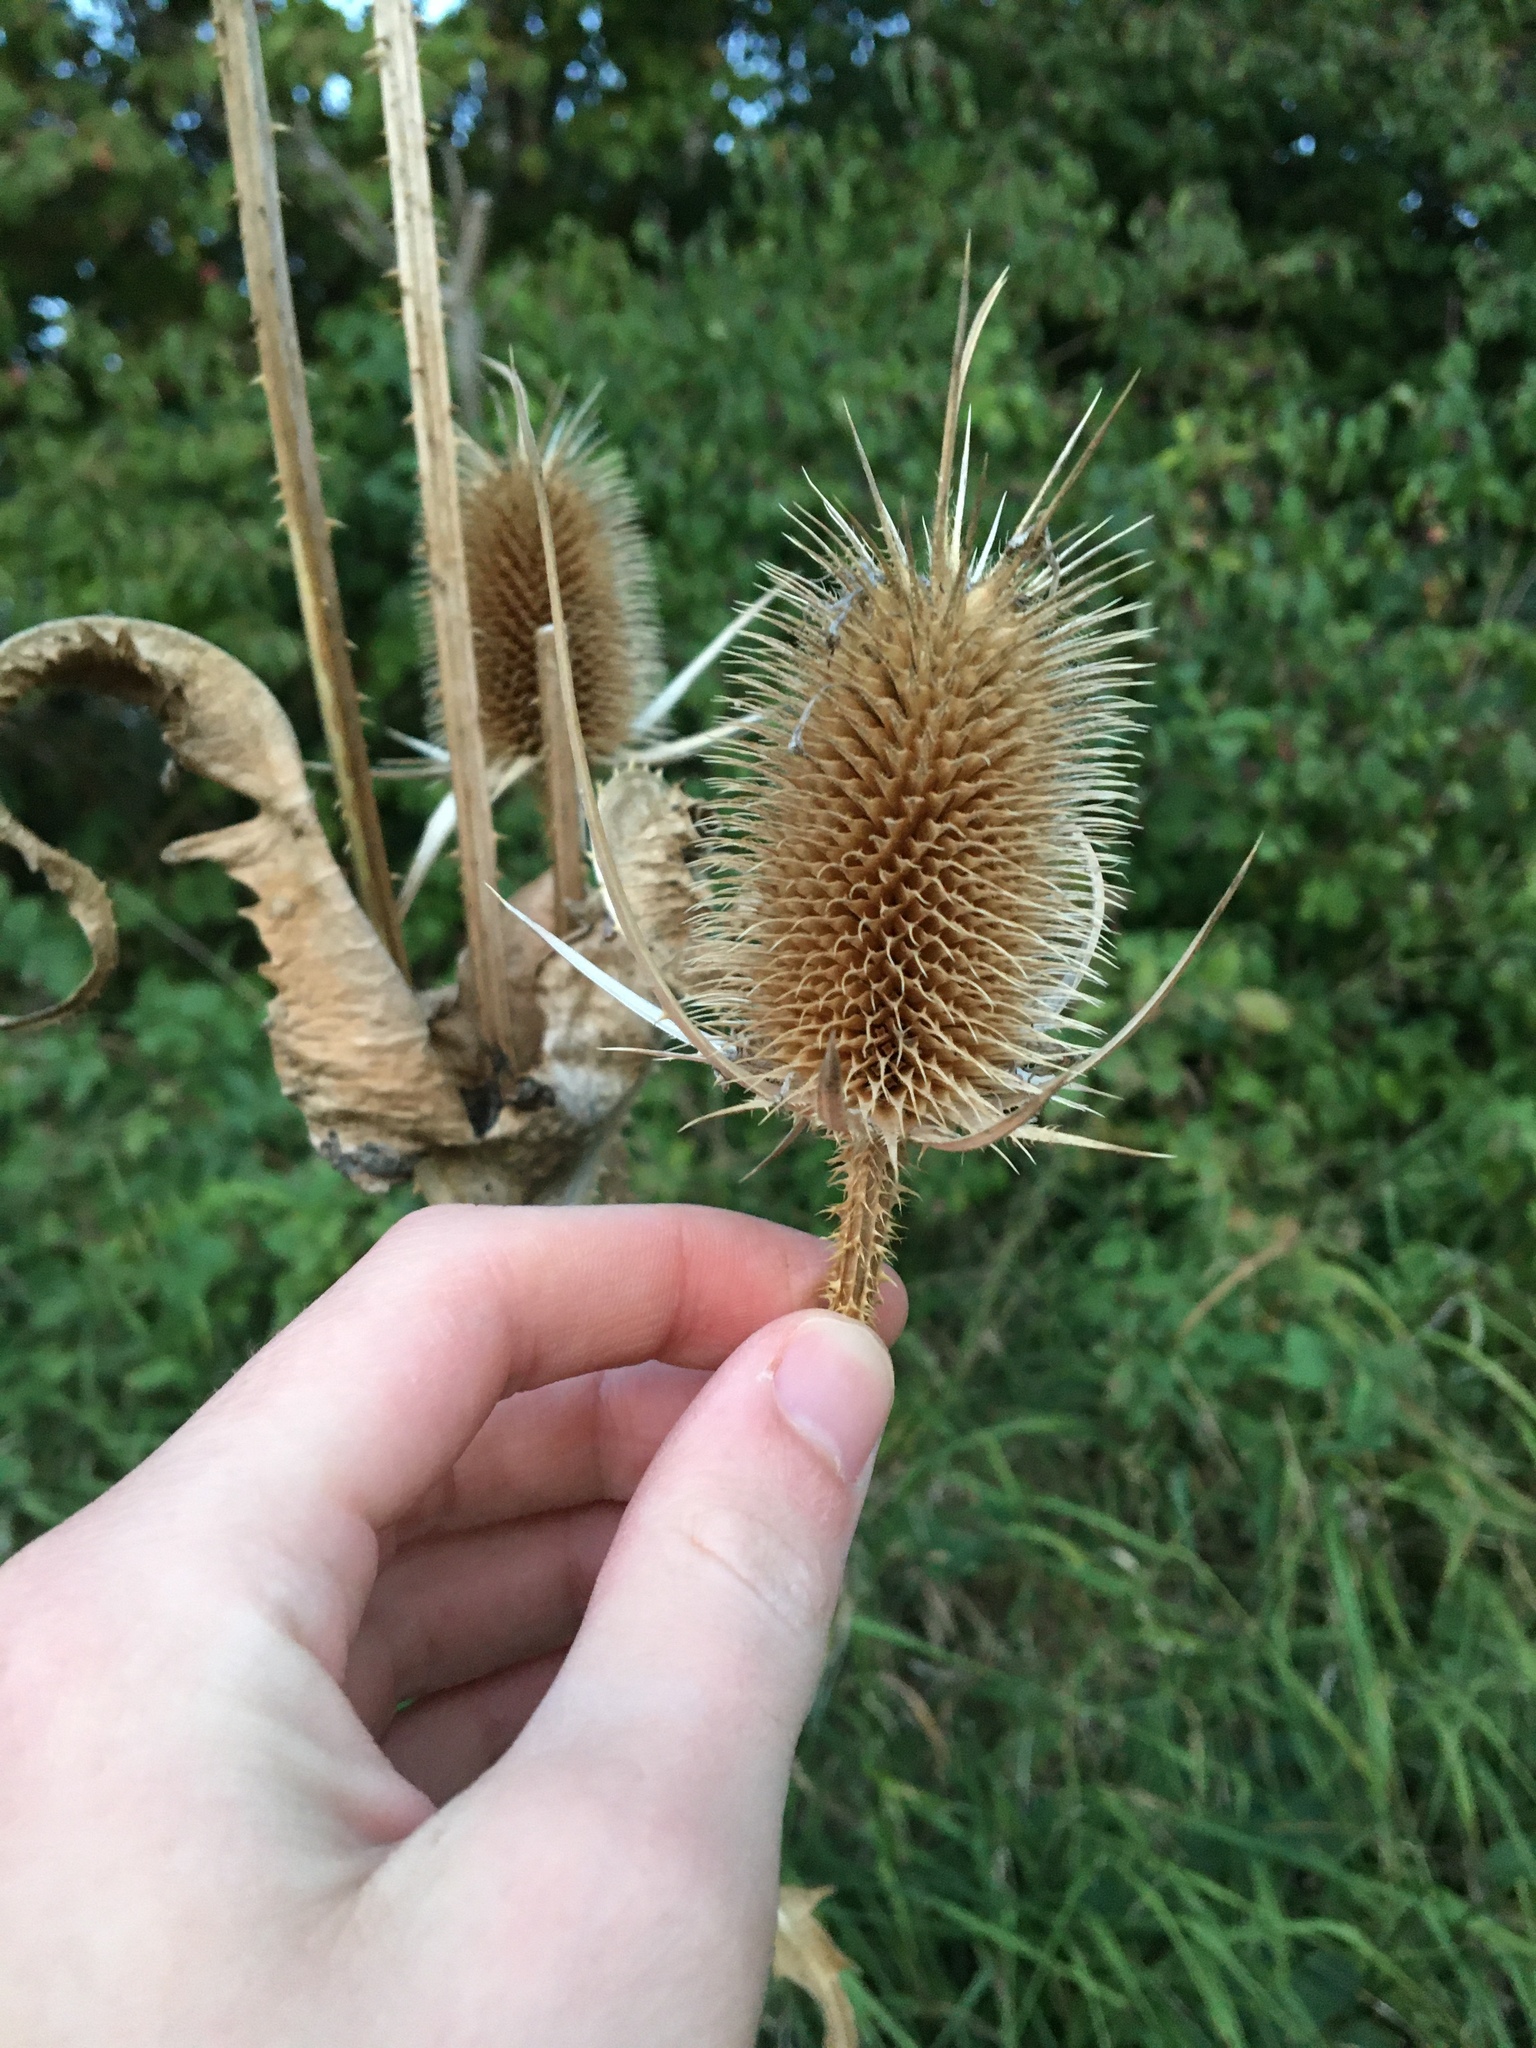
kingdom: Plantae
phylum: Tracheophyta
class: Magnoliopsida
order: Dipsacales
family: Caprifoliaceae
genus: Dipsacus
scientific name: Dipsacus fullonum
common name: Teasel
